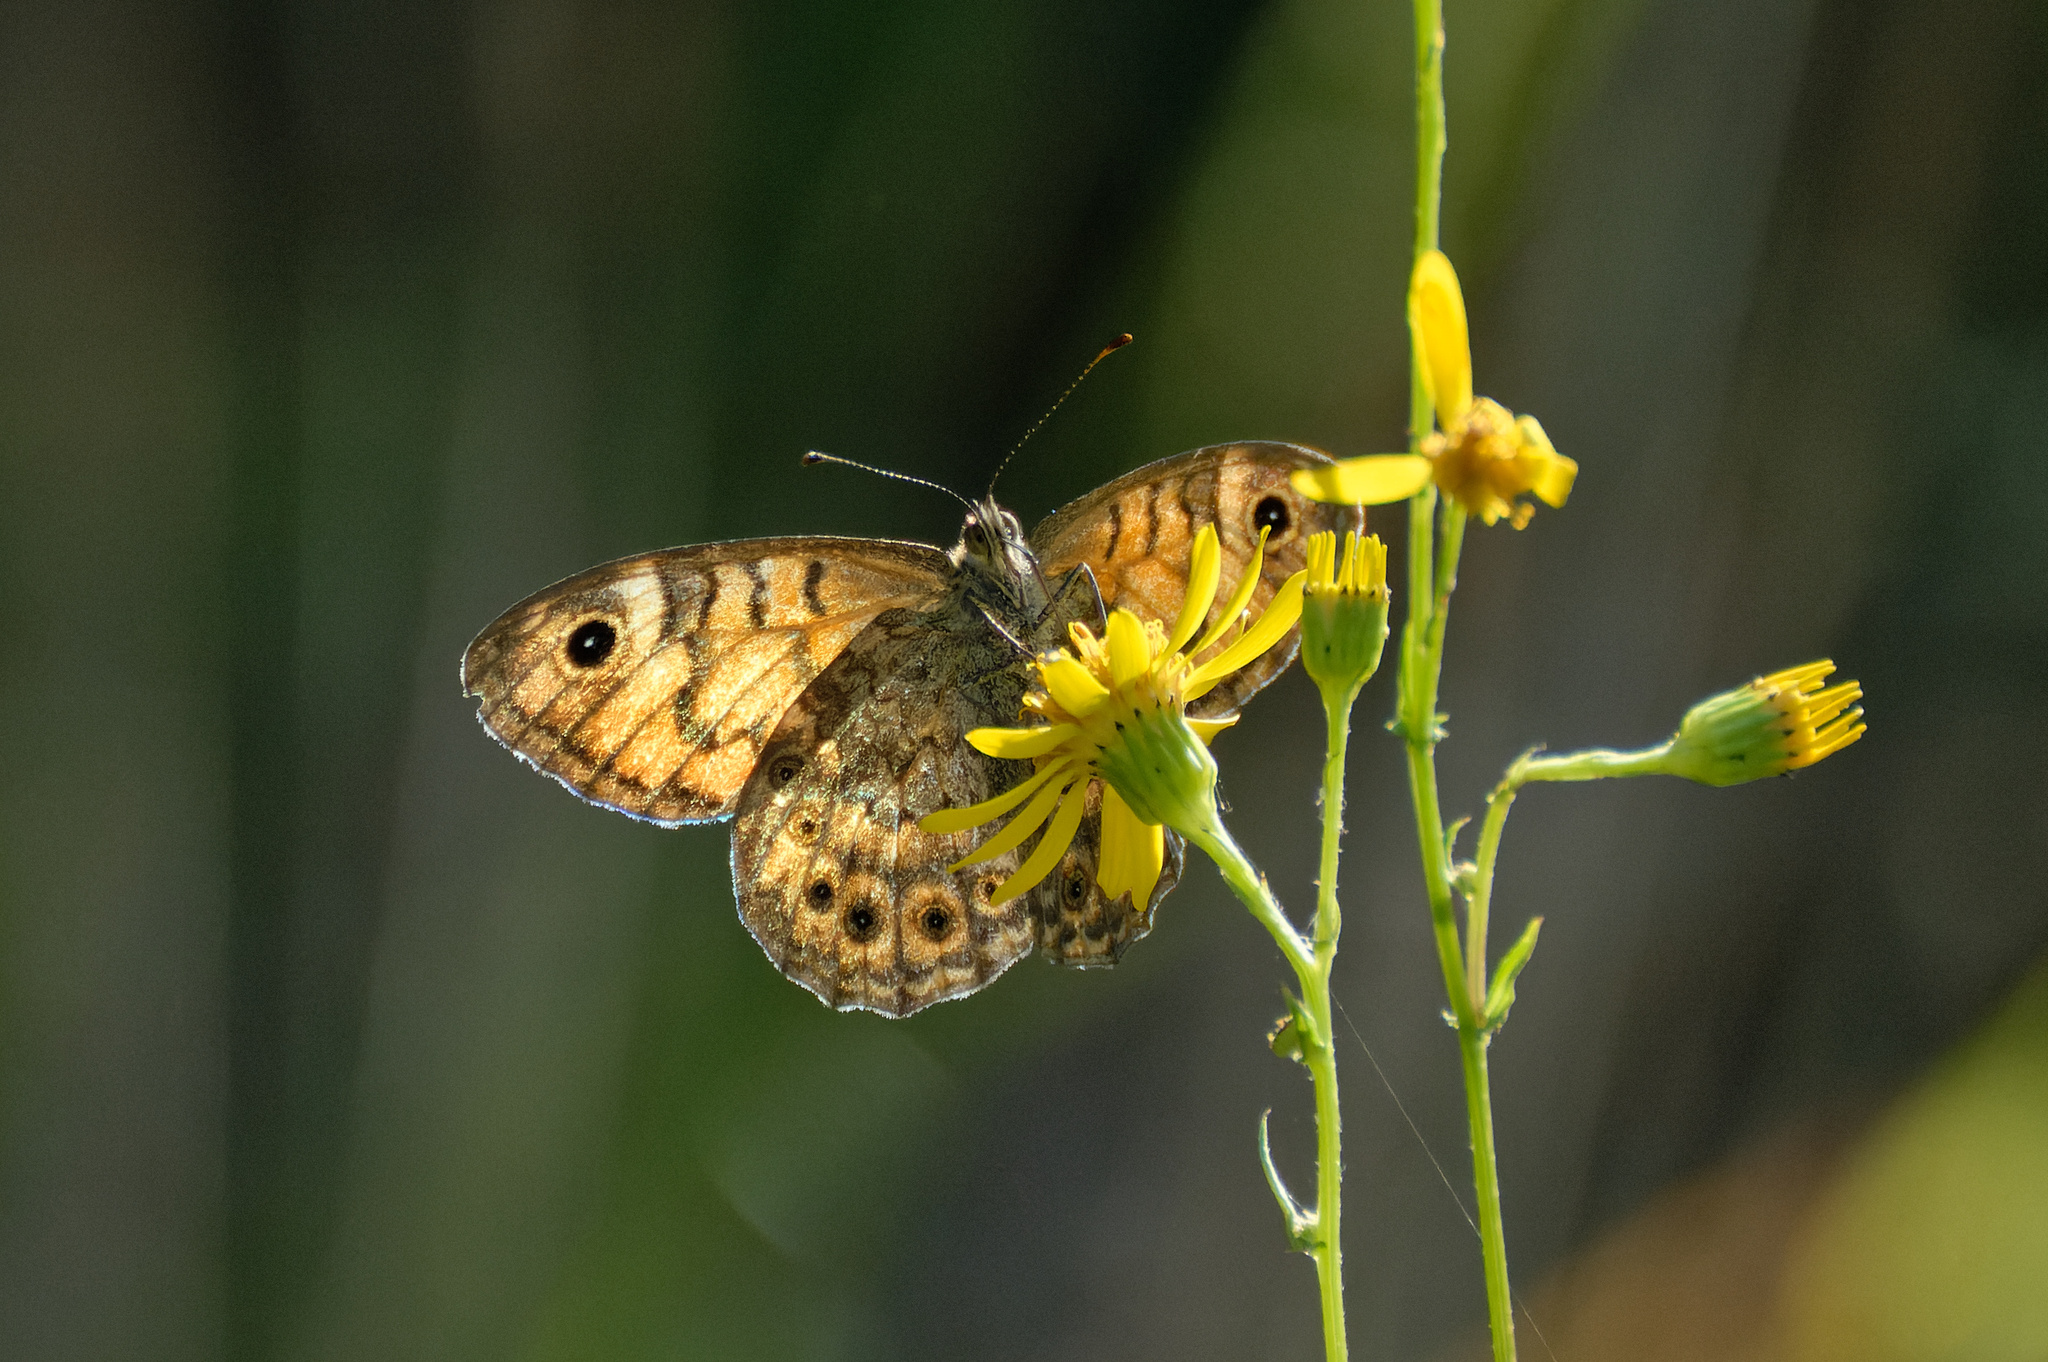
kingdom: Animalia
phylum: Arthropoda
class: Insecta
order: Lepidoptera
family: Nymphalidae
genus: Pararge
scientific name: Pararge Lasiommata megera
